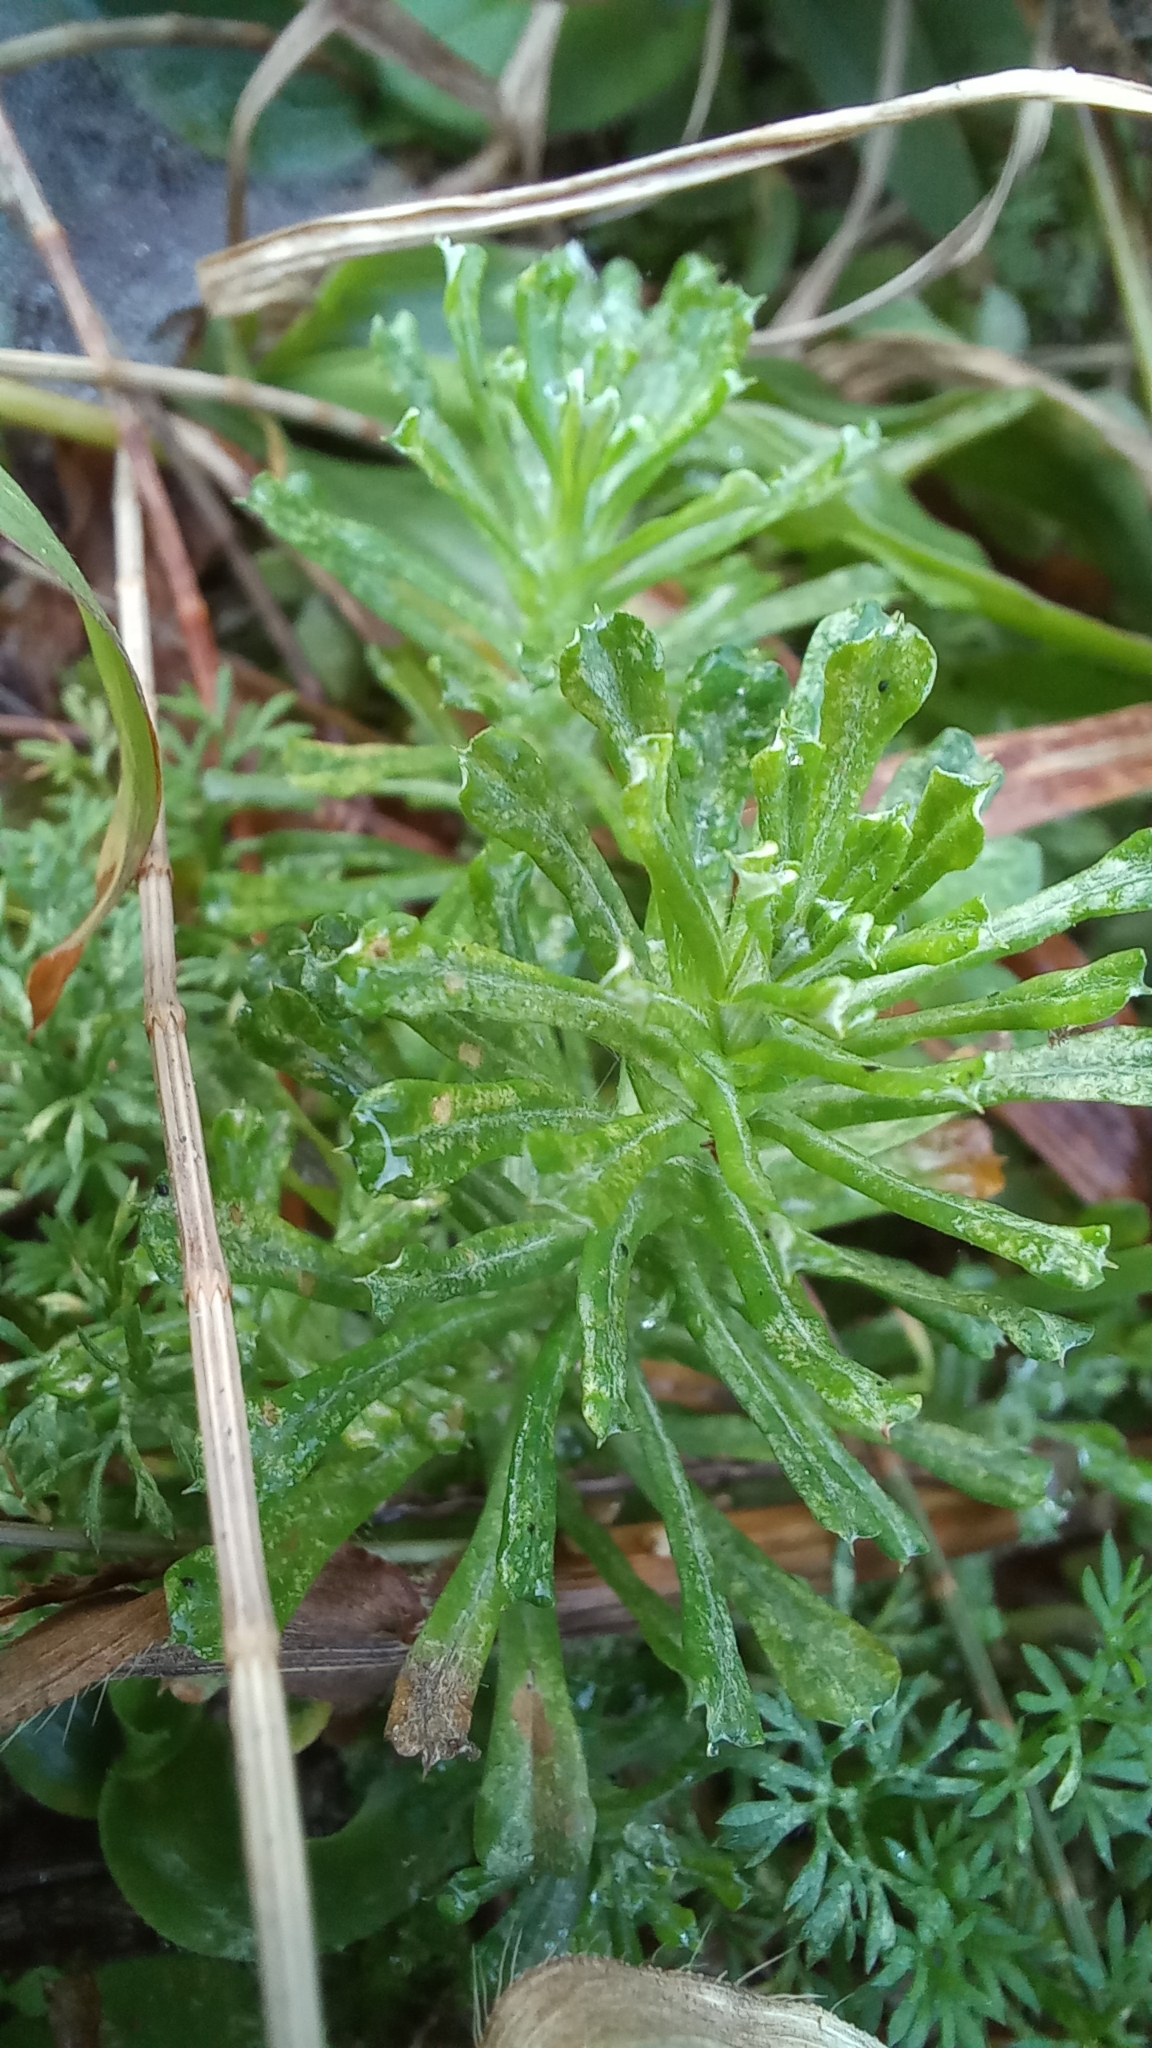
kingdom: Plantae
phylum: Tracheophyta
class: Magnoliopsida
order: Asterales
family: Asteraceae
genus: Facelis
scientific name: Facelis retusa
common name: Annual trampweed
